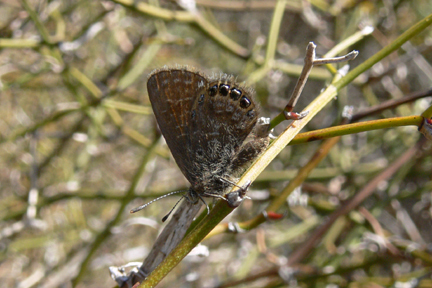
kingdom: Animalia
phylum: Arthropoda
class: Insecta
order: Lepidoptera
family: Lycaenidae
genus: Brephidium
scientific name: Brephidium isophthalma
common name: Eastern pygmy-blue
